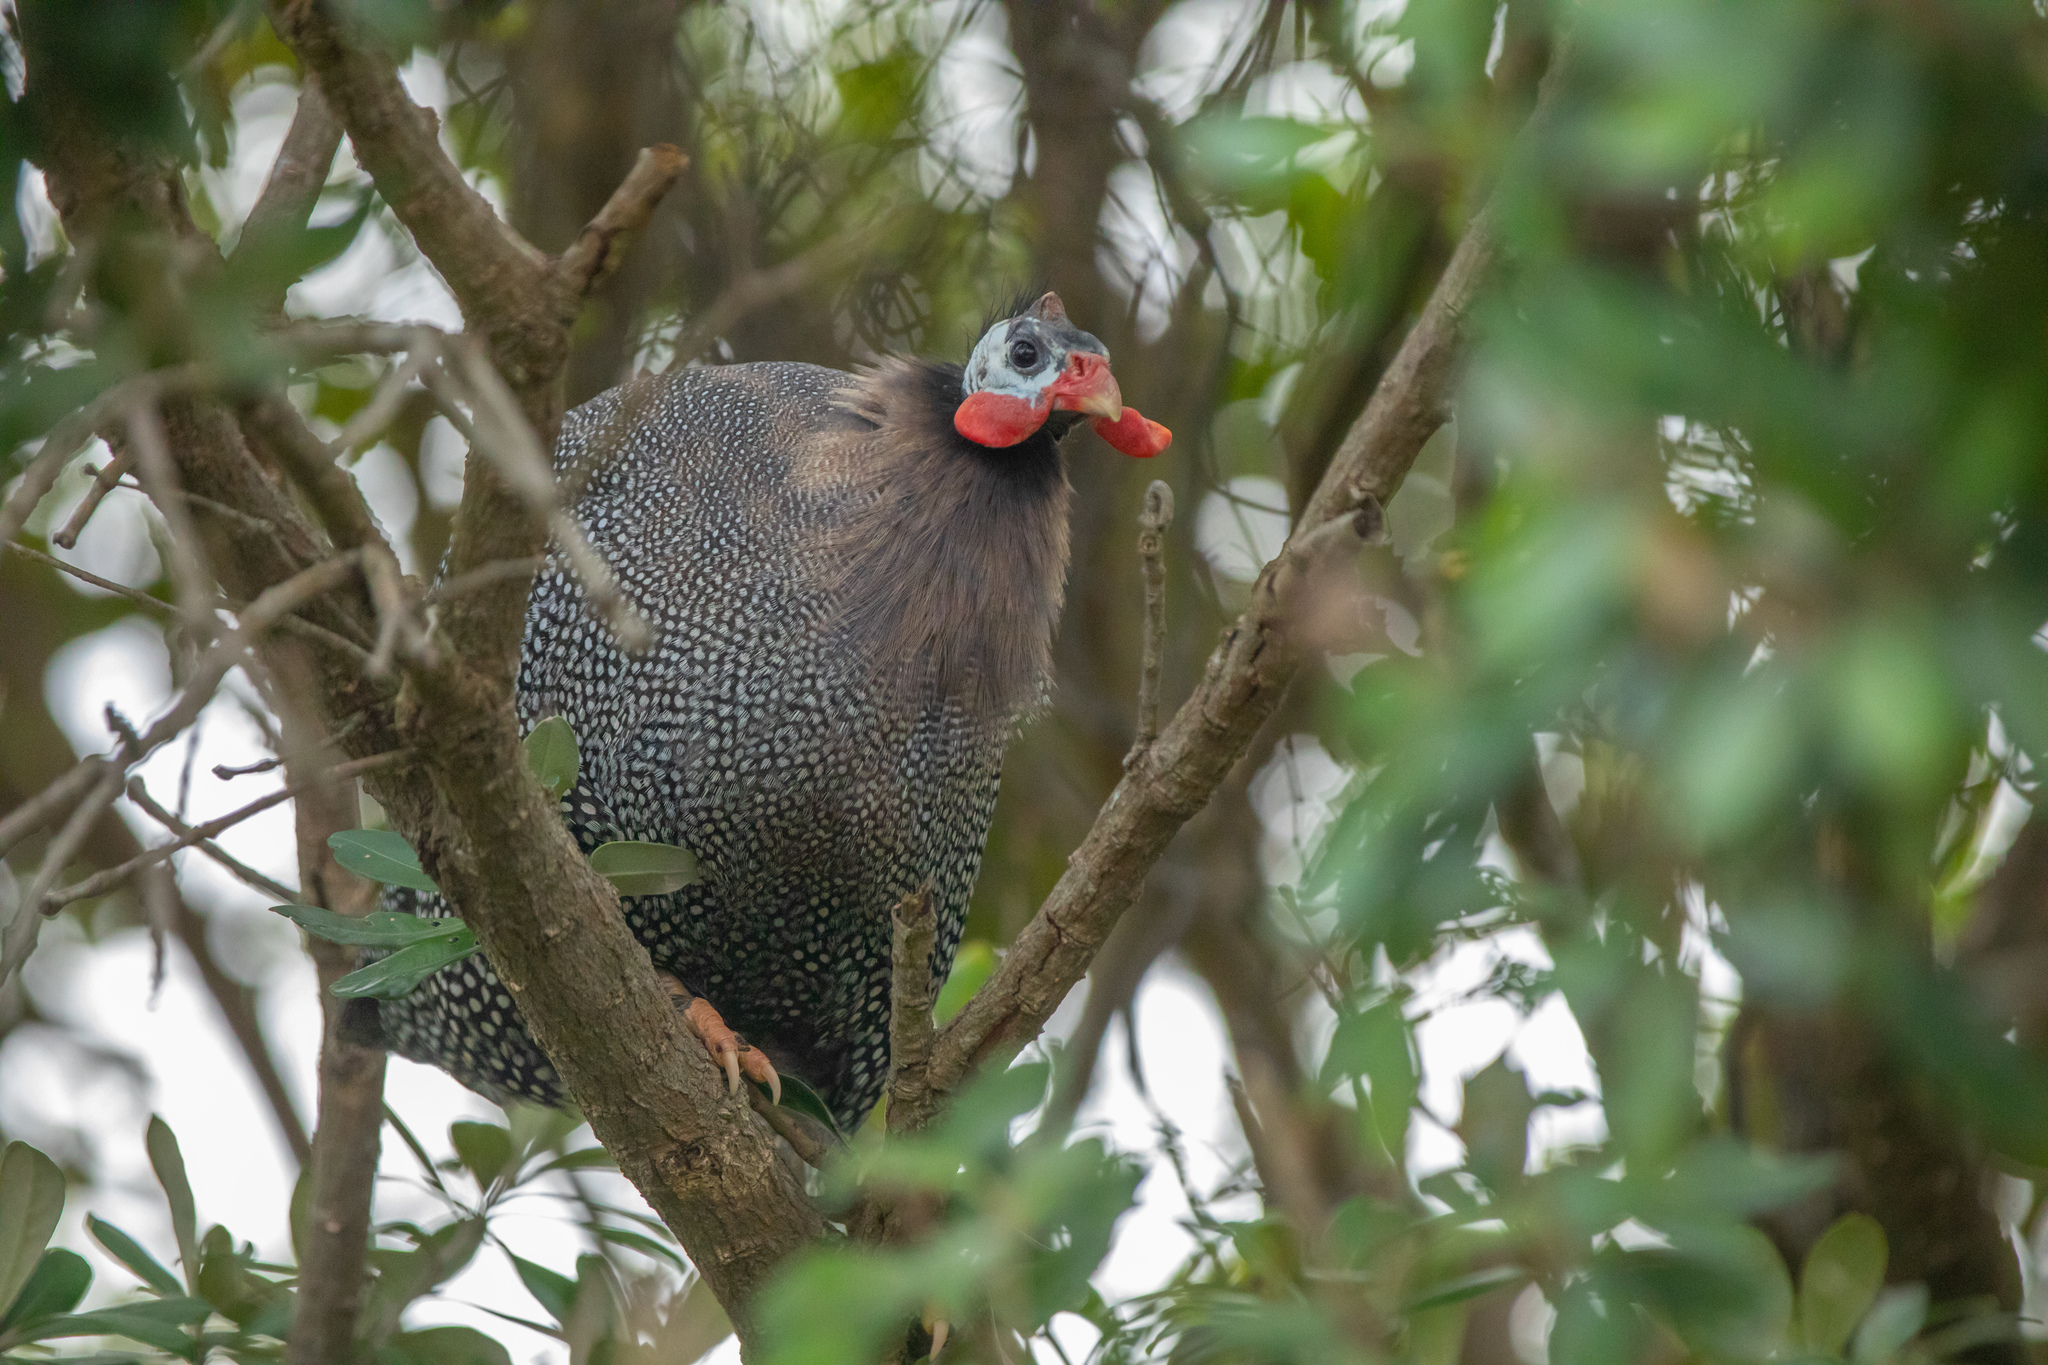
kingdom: Animalia
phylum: Chordata
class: Aves
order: Galliformes
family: Numididae
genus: Numida
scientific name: Numida meleagris
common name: Helmeted guineafowl
